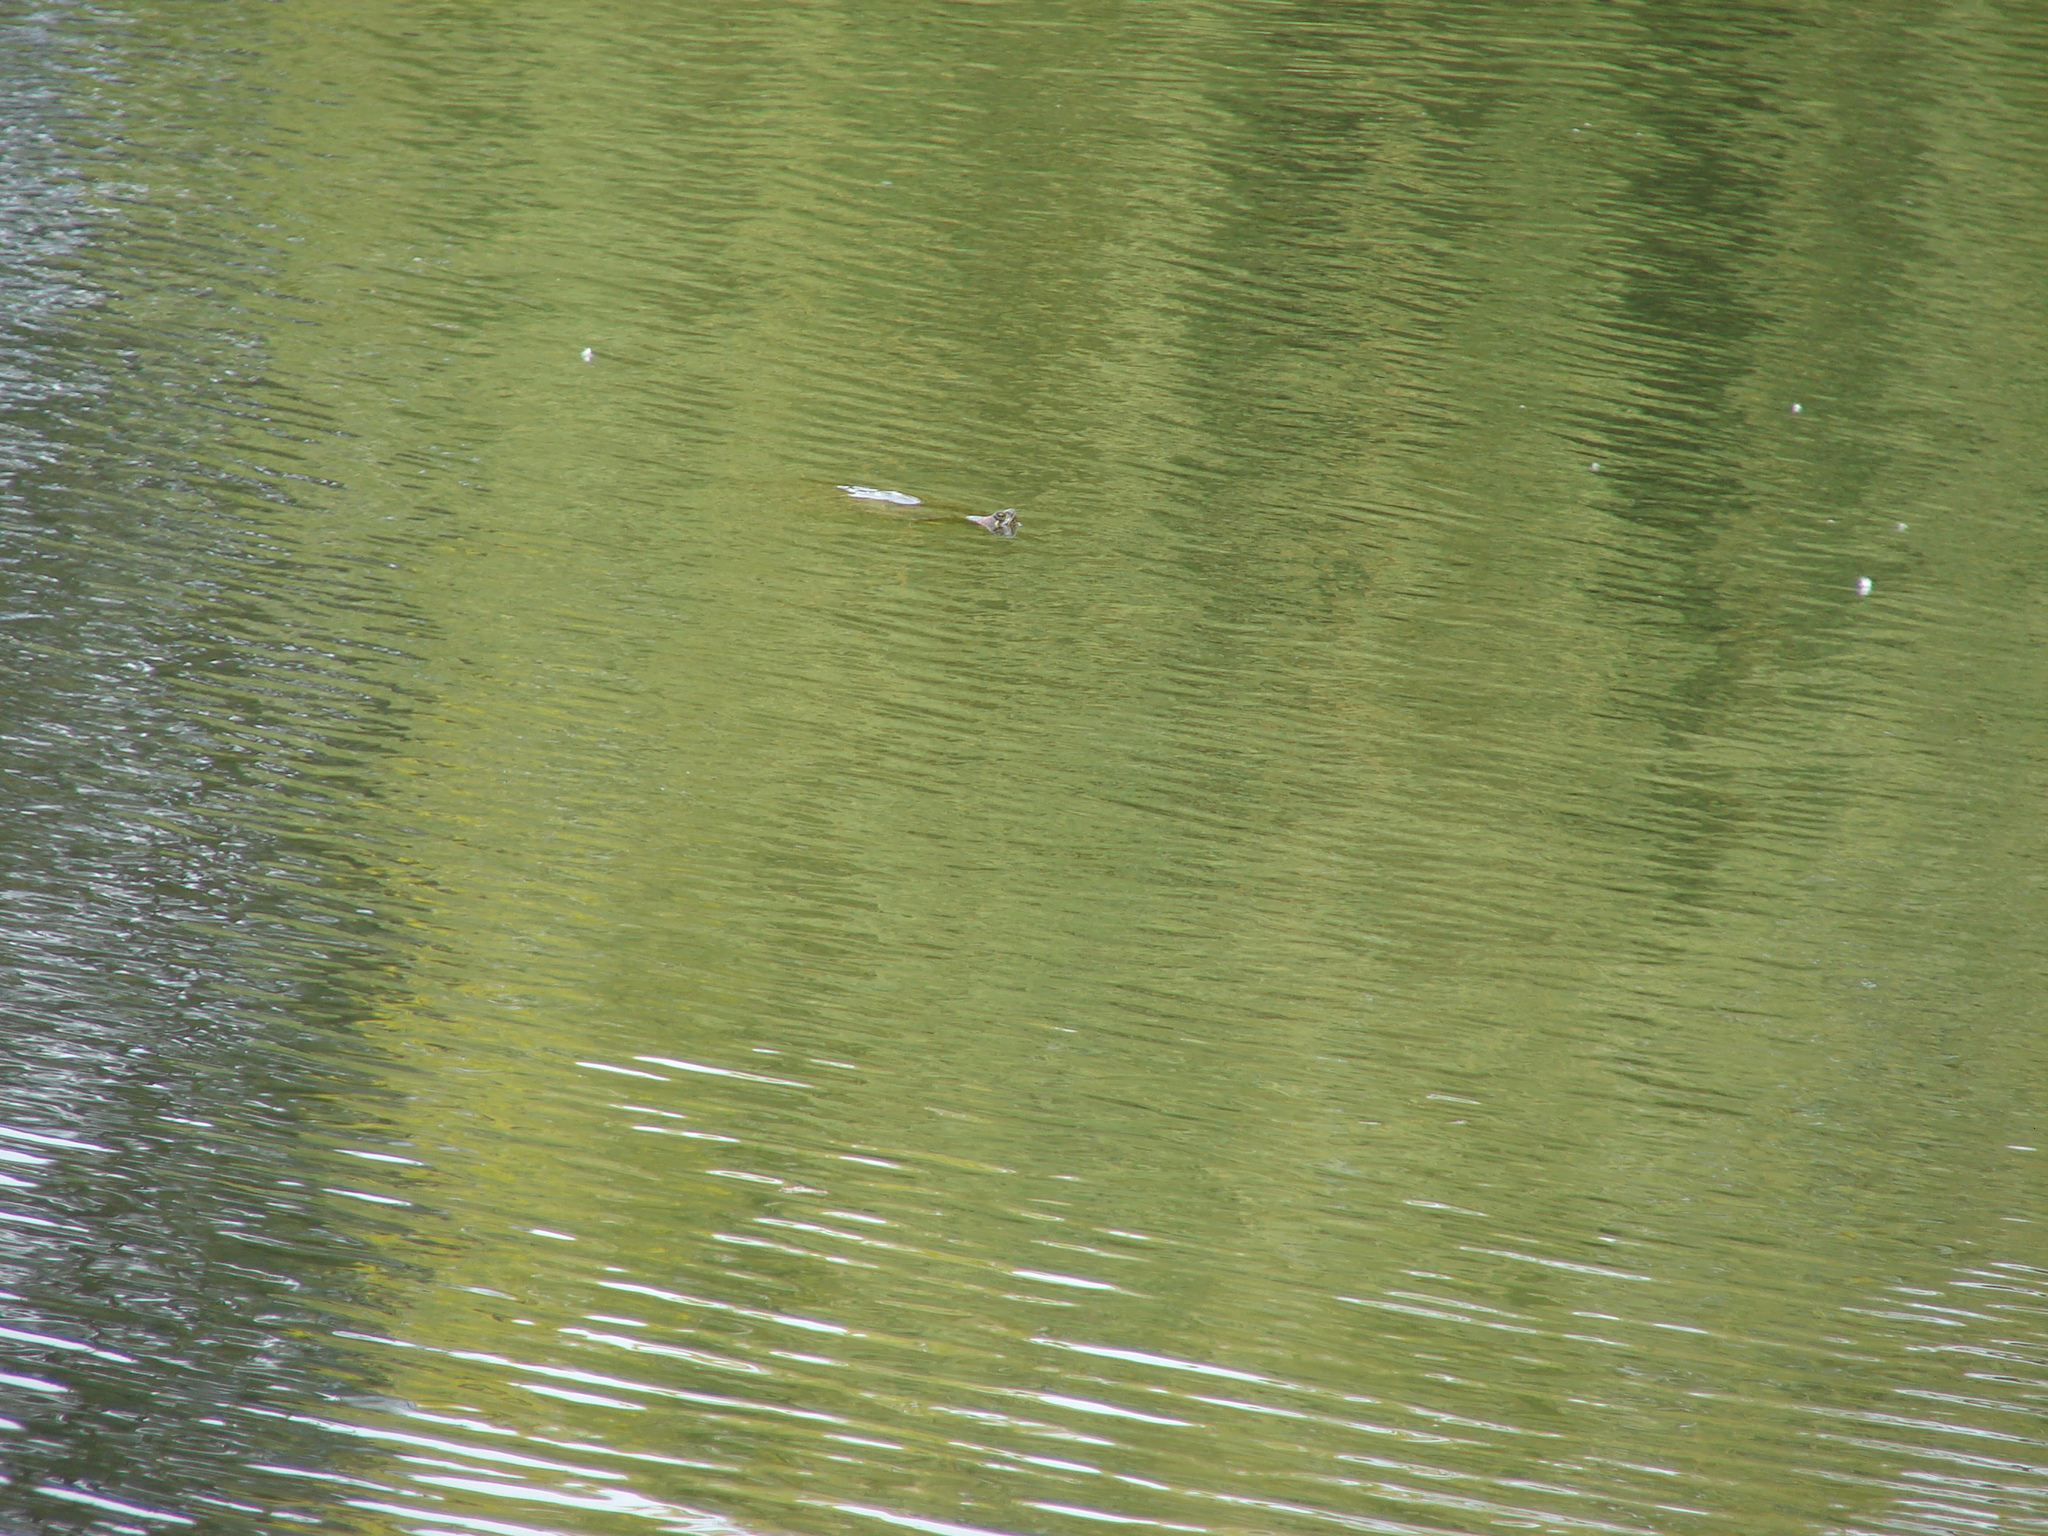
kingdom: Animalia
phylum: Chordata
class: Testudines
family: Emydidae
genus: Trachemys
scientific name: Trachemys scripta
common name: Slider
